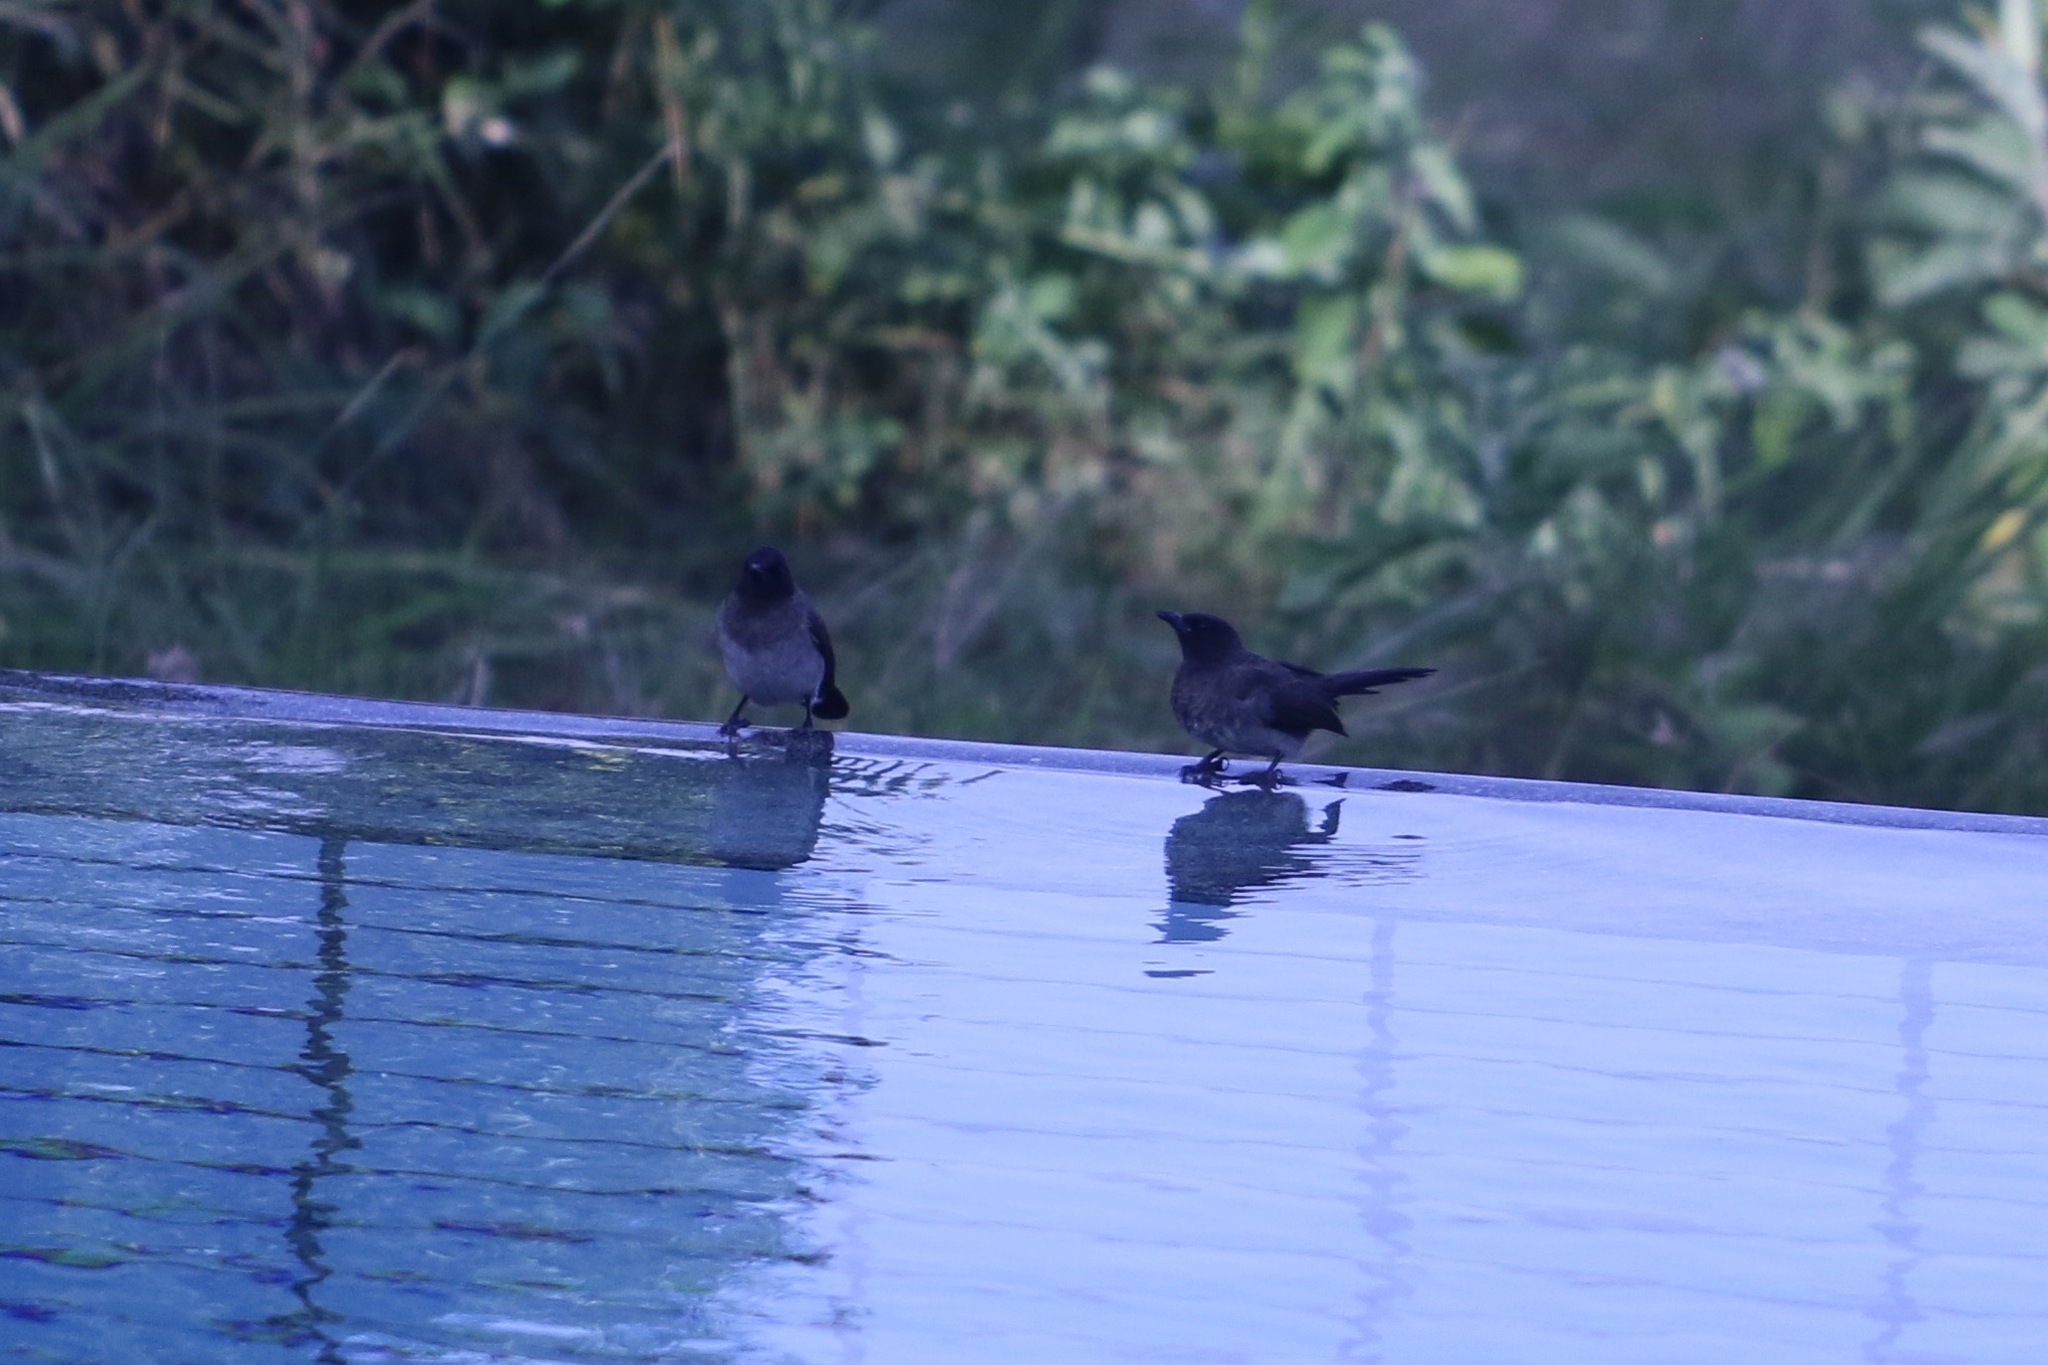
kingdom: Animalia
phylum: Chordata
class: Aves
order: Passeriformes
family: Pycnonotidae
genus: Pycnonotus
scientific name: Pycnonotus barbatus
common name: Common bulbul
